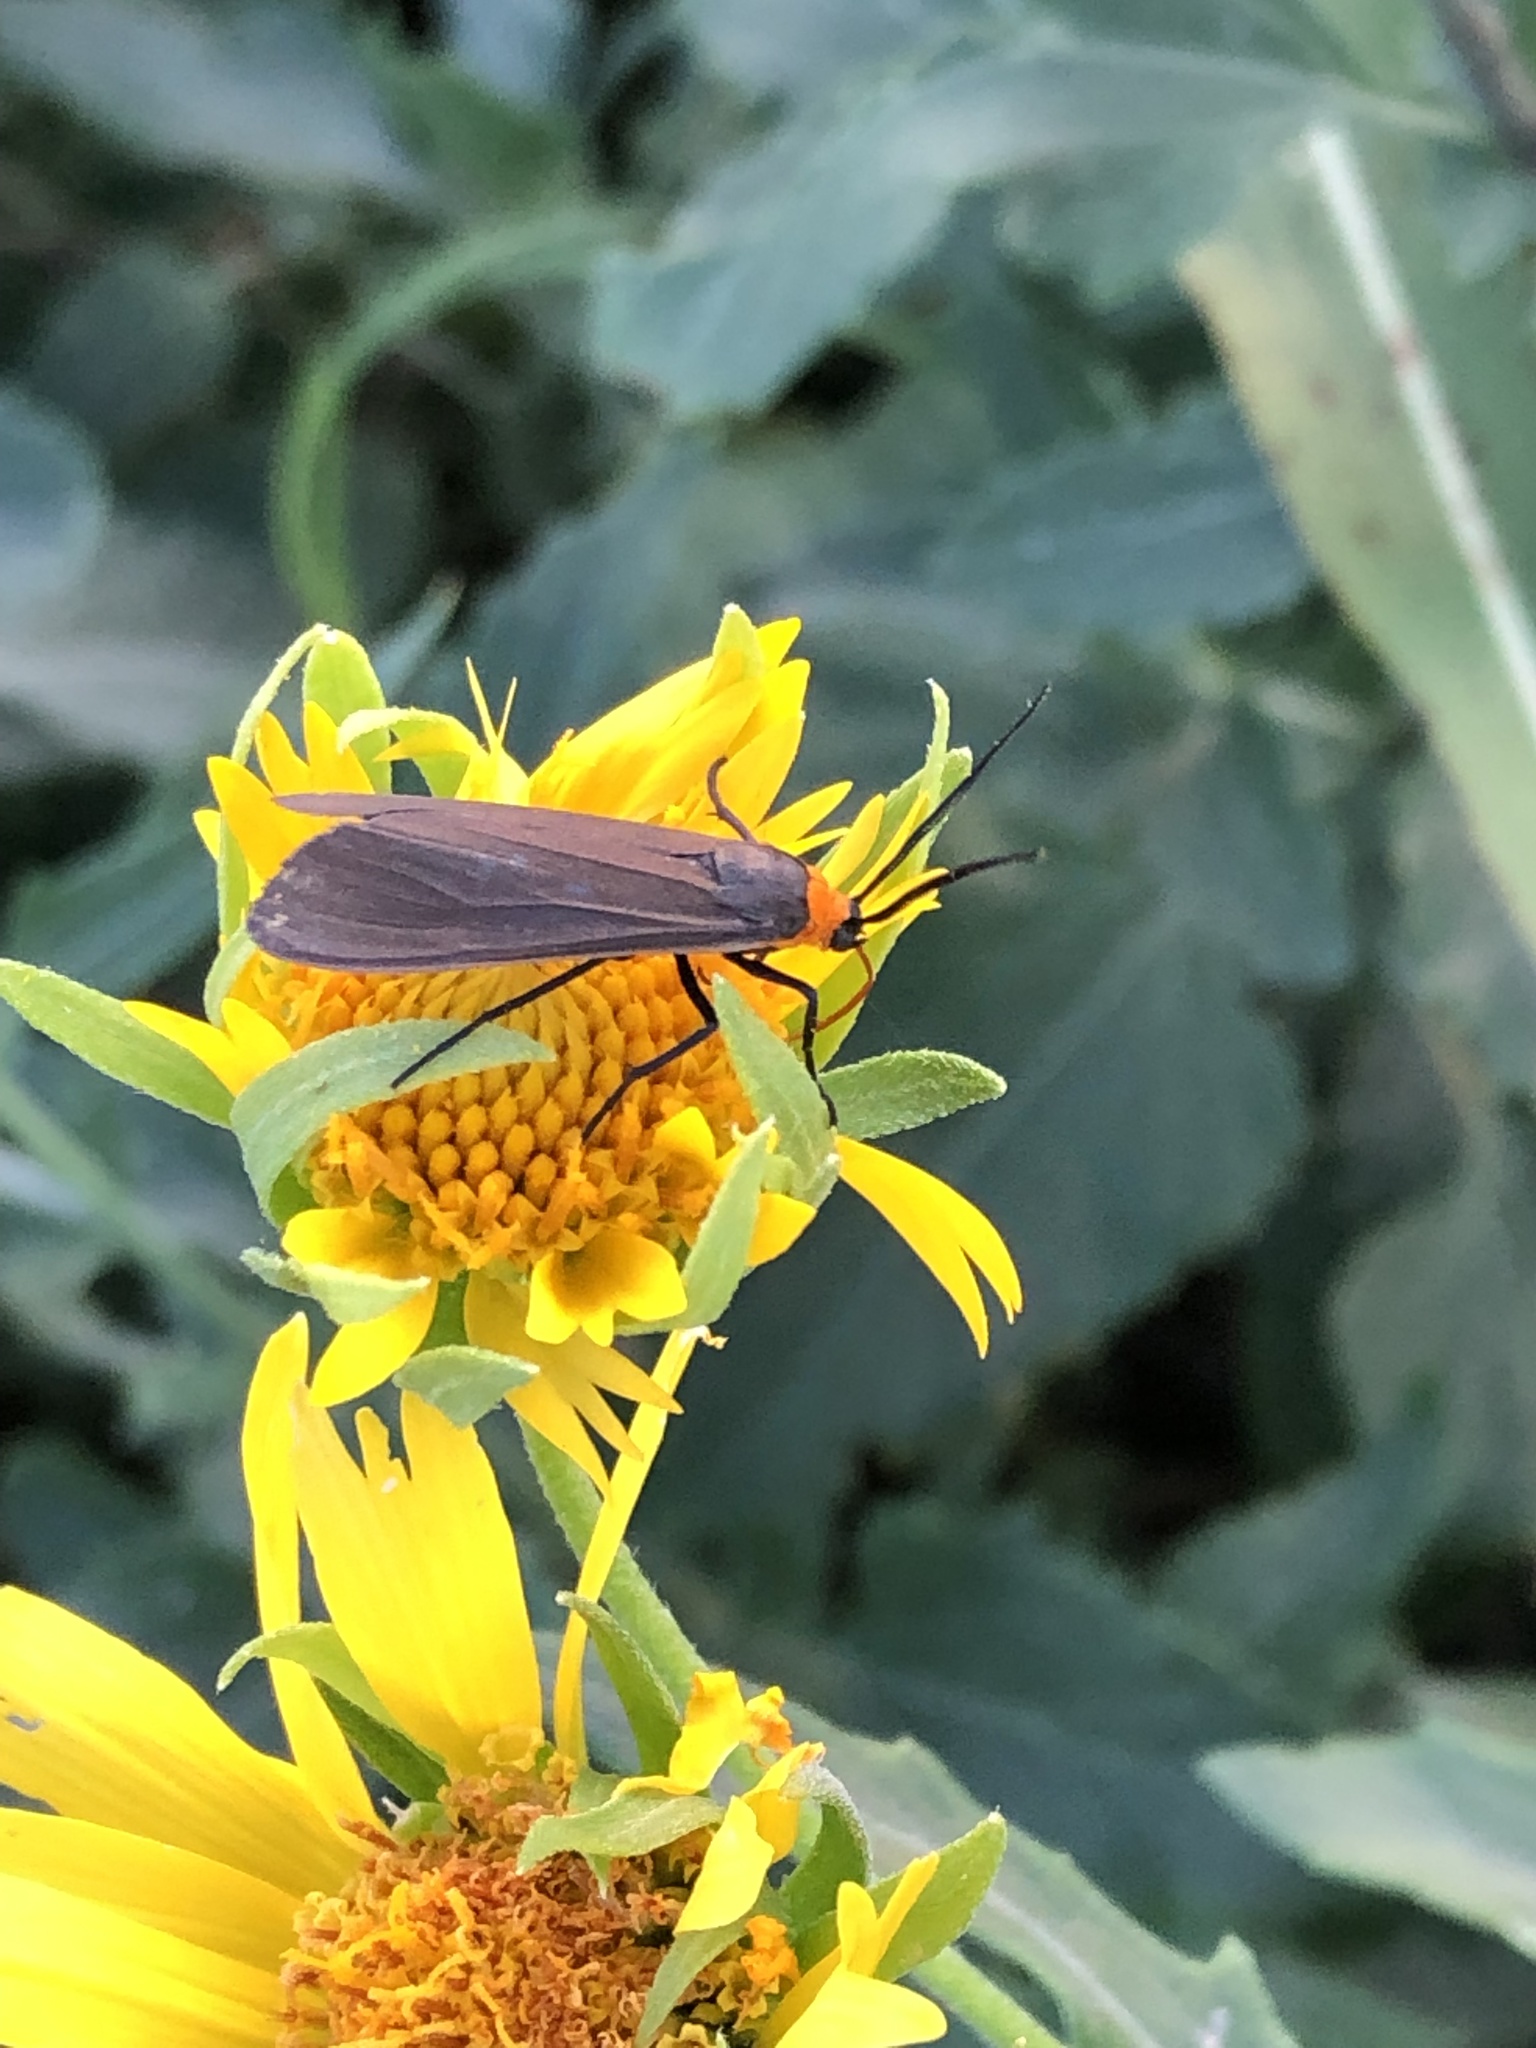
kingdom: Animalia
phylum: Arthropoda
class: Insecta
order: Lepidoptera
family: Erebidae
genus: Cisseps
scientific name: Cisseps fulvicollis
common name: Yellow-collared scape moth
